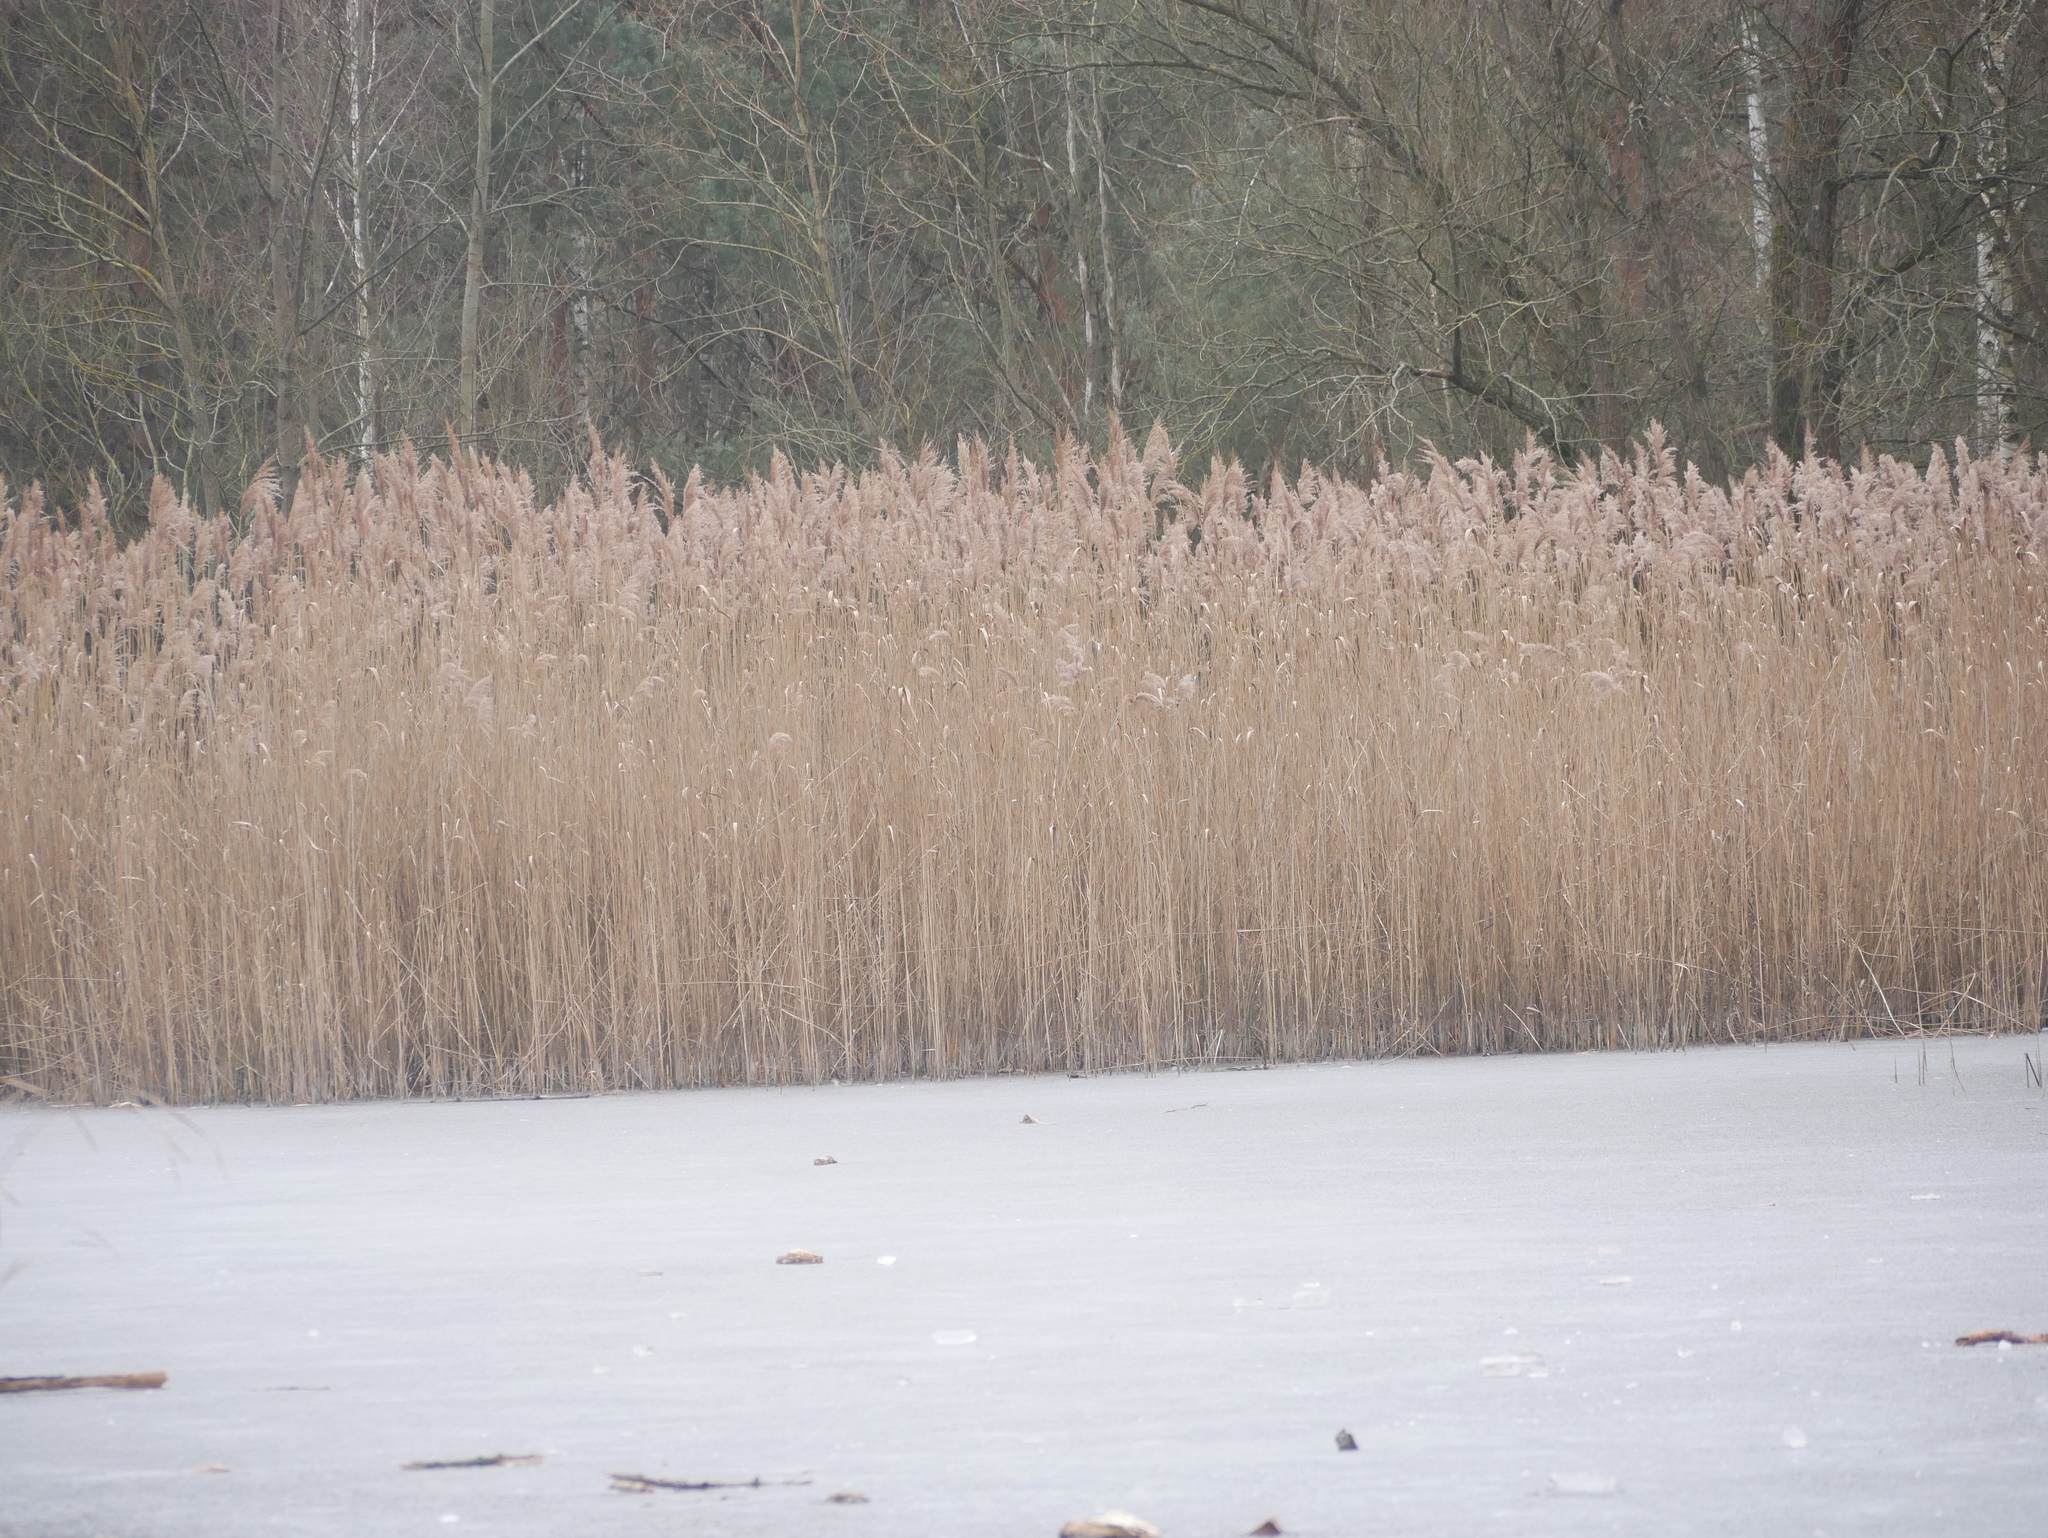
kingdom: Plantae
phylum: Tracheophyta
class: Liliopsida
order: Poales
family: Poaceae
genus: Phragmites
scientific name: Phragmites australis
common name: Common reed
